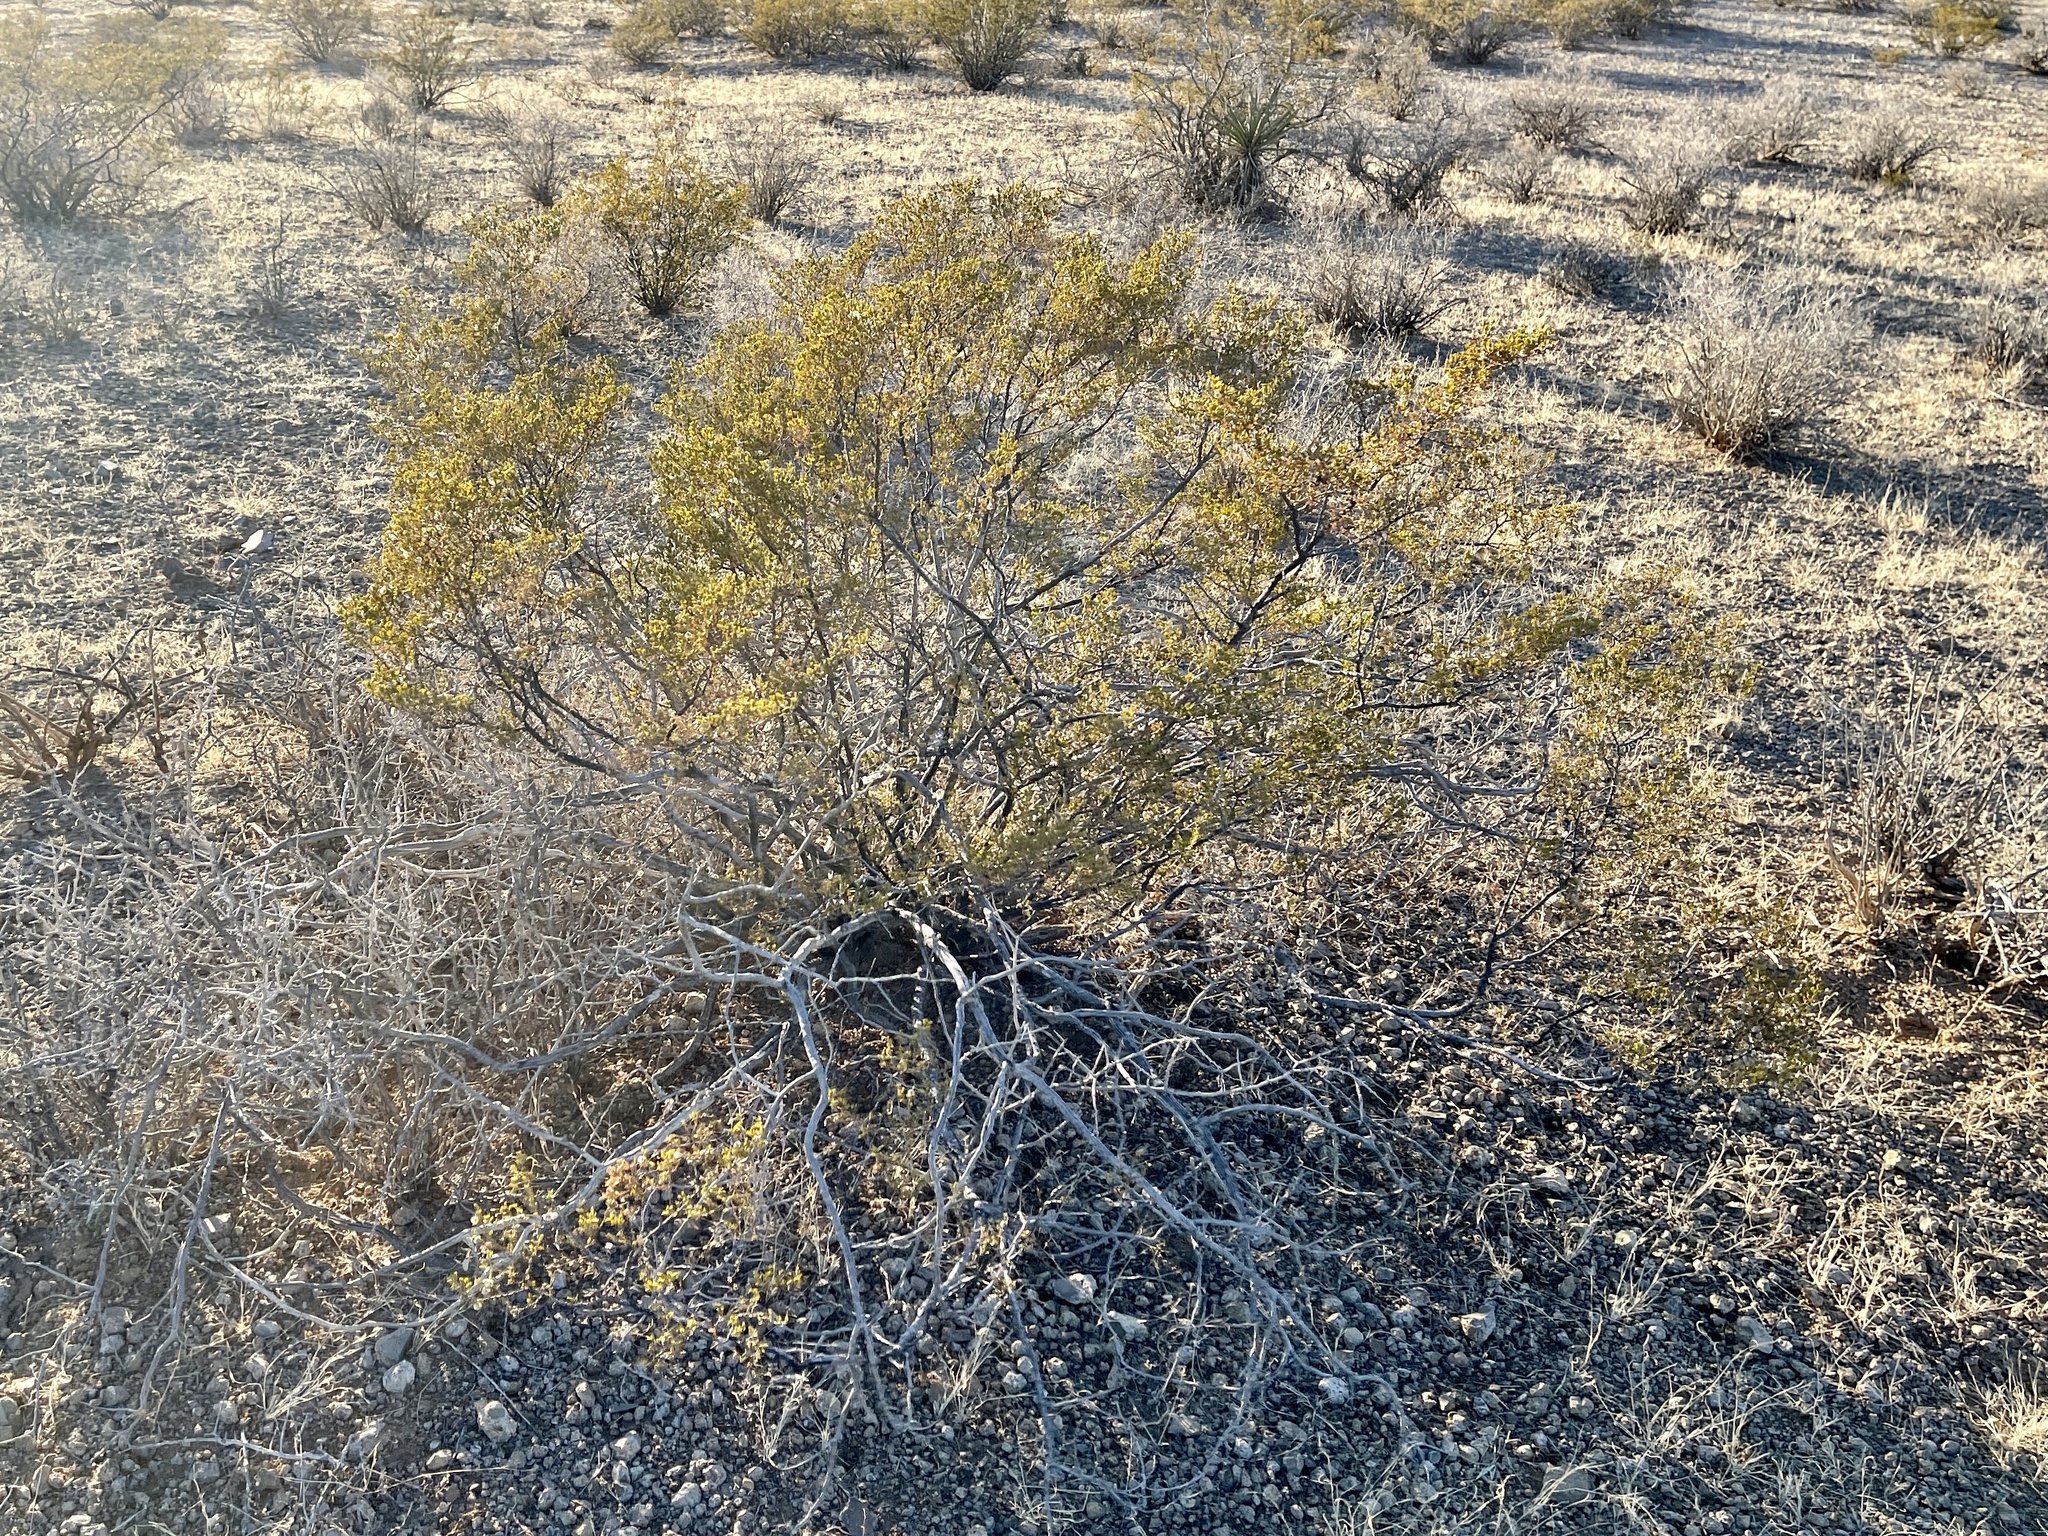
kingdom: Plantae
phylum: Tracheophyta
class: Magnoliopsida
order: Zygophyllales
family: Zygophyllaceae
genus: Larrea
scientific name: Larrea tridentata
